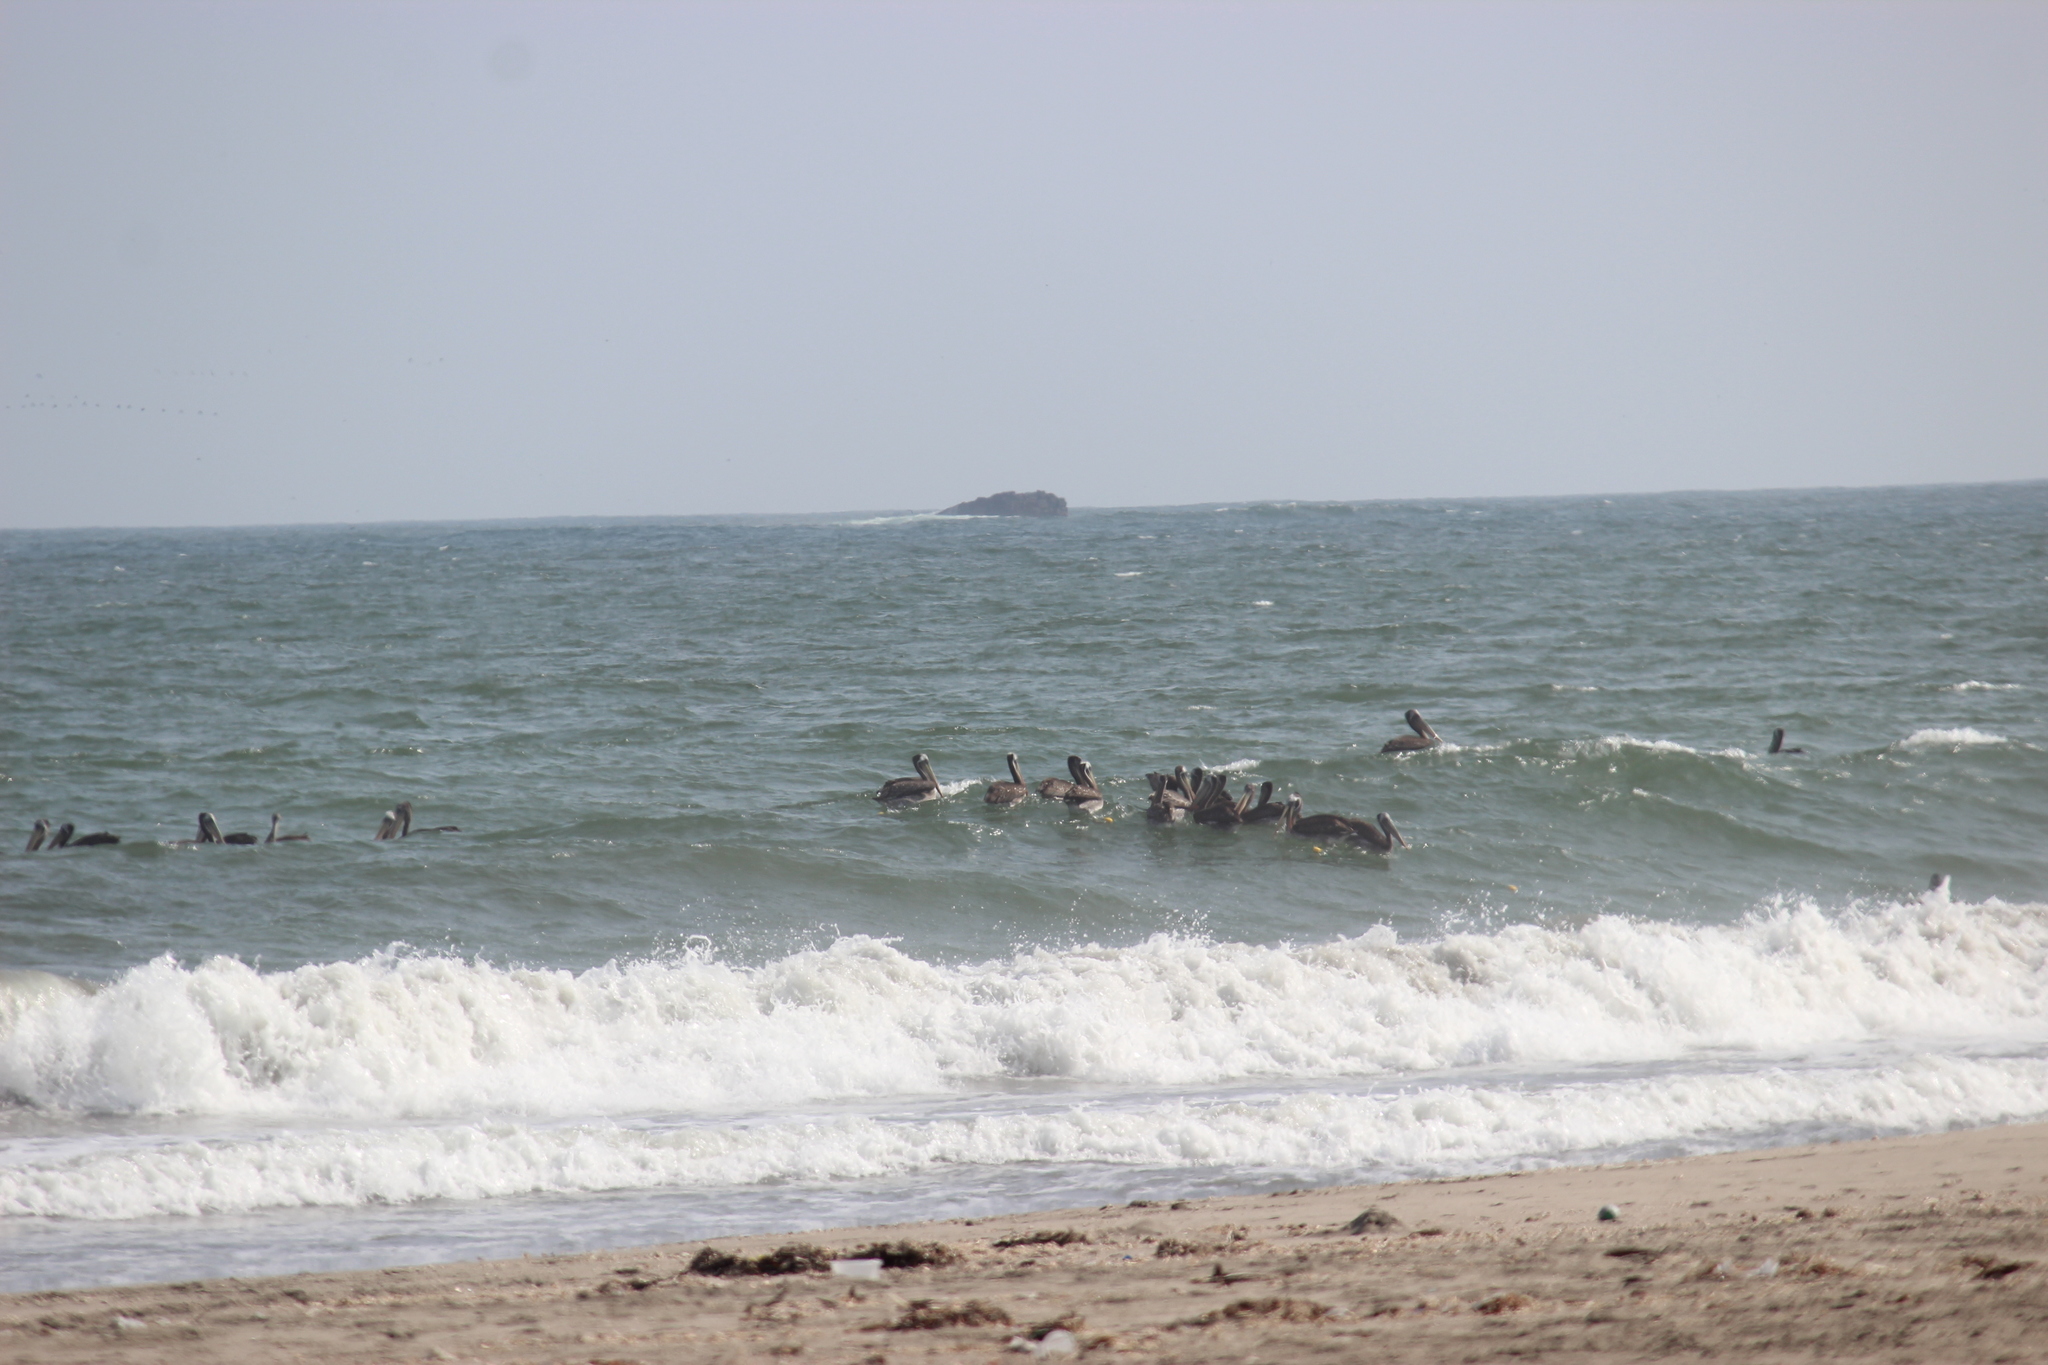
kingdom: Animalia
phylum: Chordata
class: Aves
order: Pelecaniformes
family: Pelecanidae
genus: Pelecanus
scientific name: Pelecanus thagus
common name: Peruvian pelican
